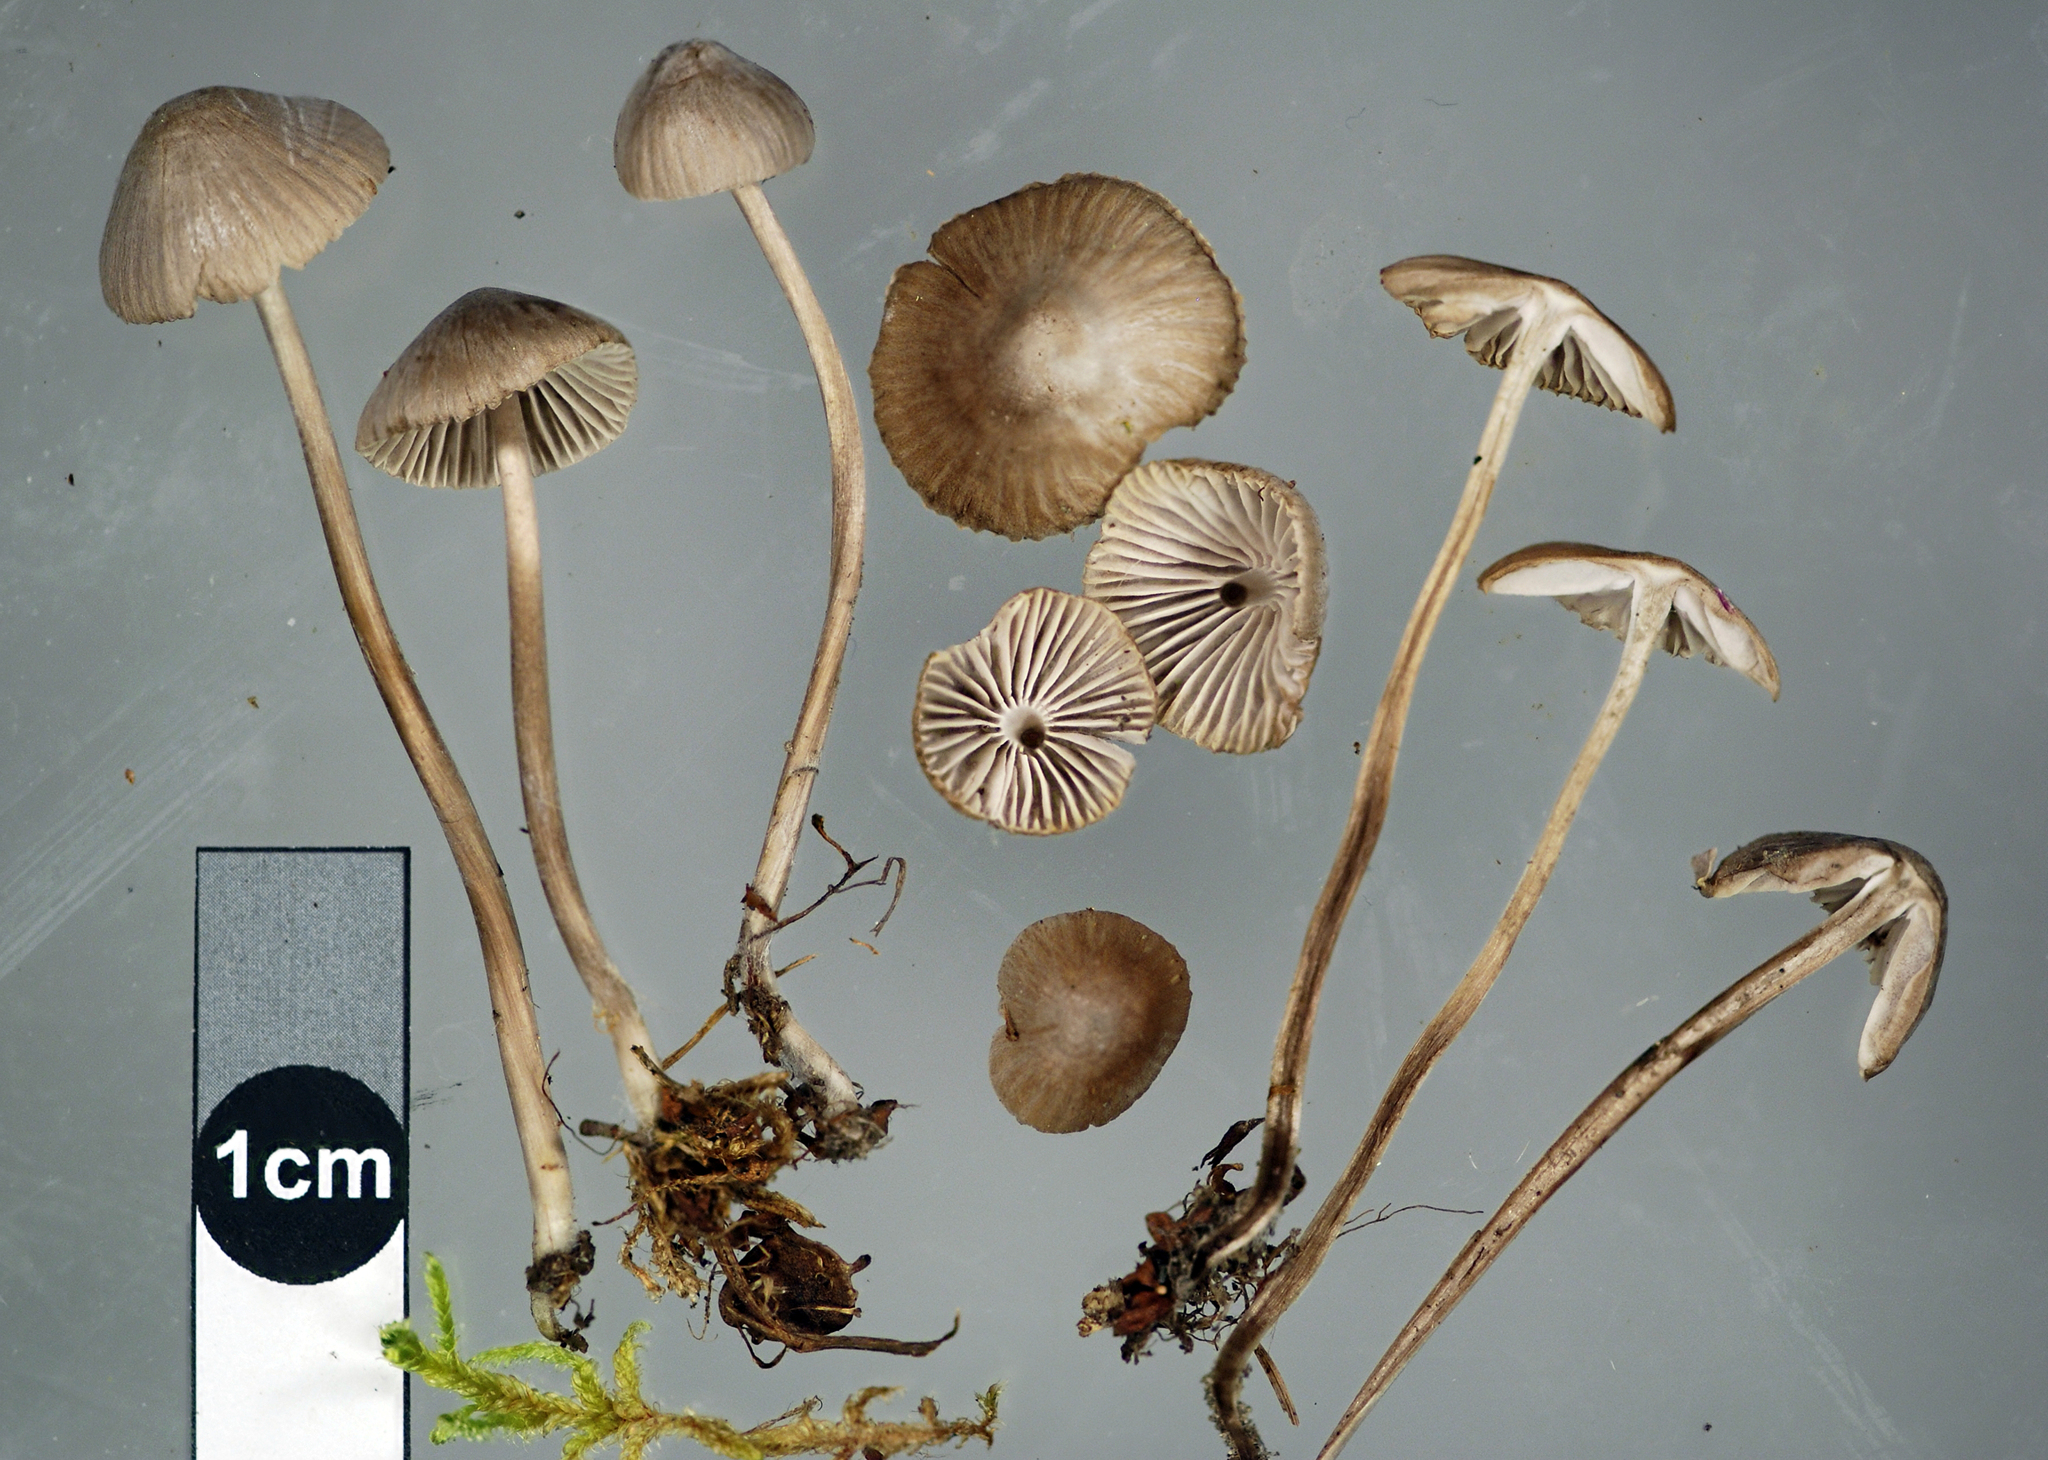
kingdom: Fungi
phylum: Basidiomycota
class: Agaricomycetes
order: Agaricales
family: Mycenaceae
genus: Mycena
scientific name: Mycena leptocephala
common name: Nitrous bonnet
